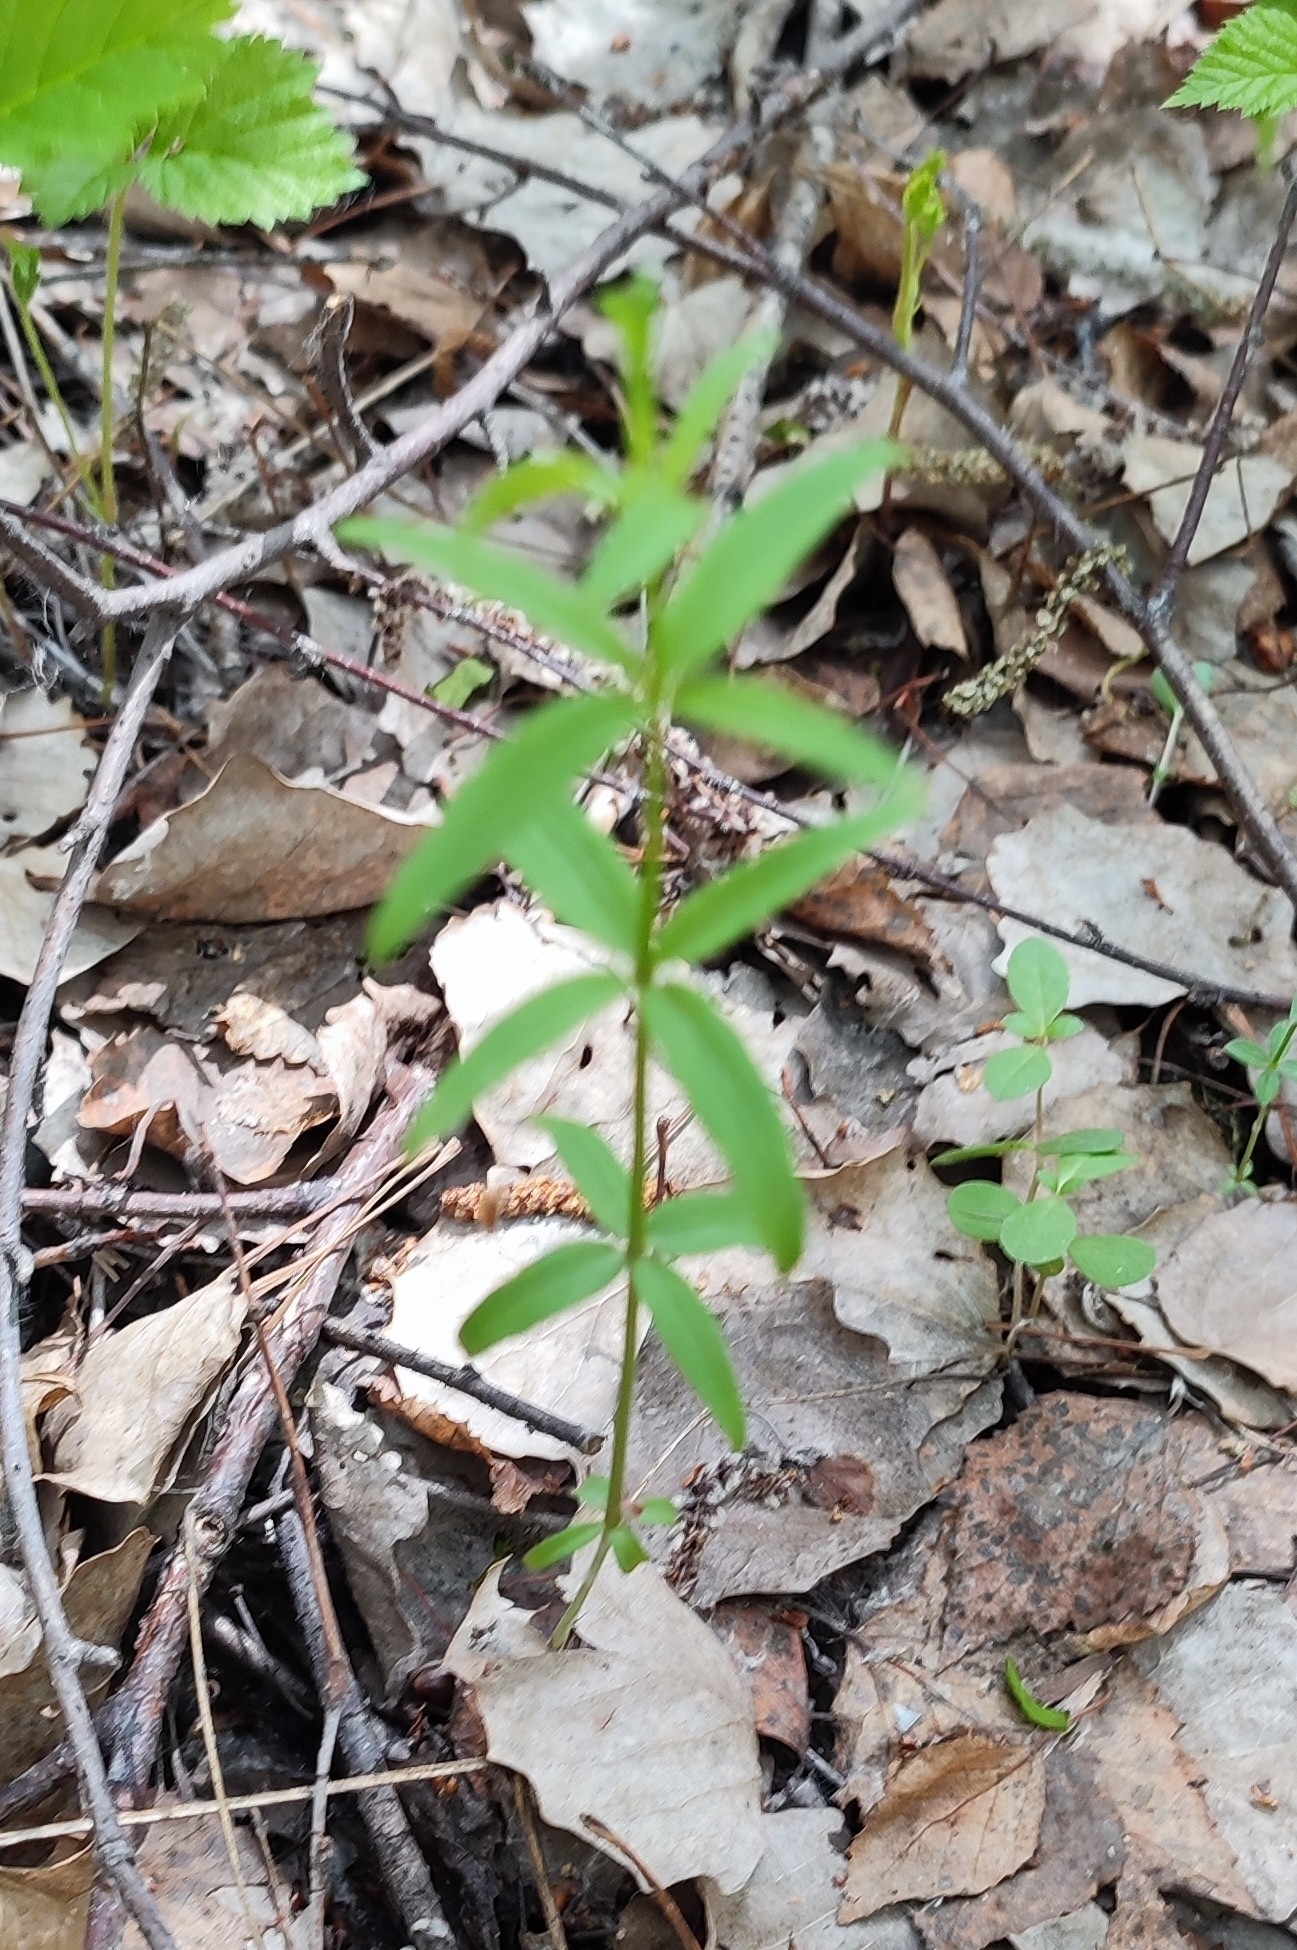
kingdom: Plantae
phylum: Tracheophyta
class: Magnoliopsida
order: Gentianales
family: Rubiaceae
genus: Galium
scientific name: Galium boreale
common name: Northern bedstraw
